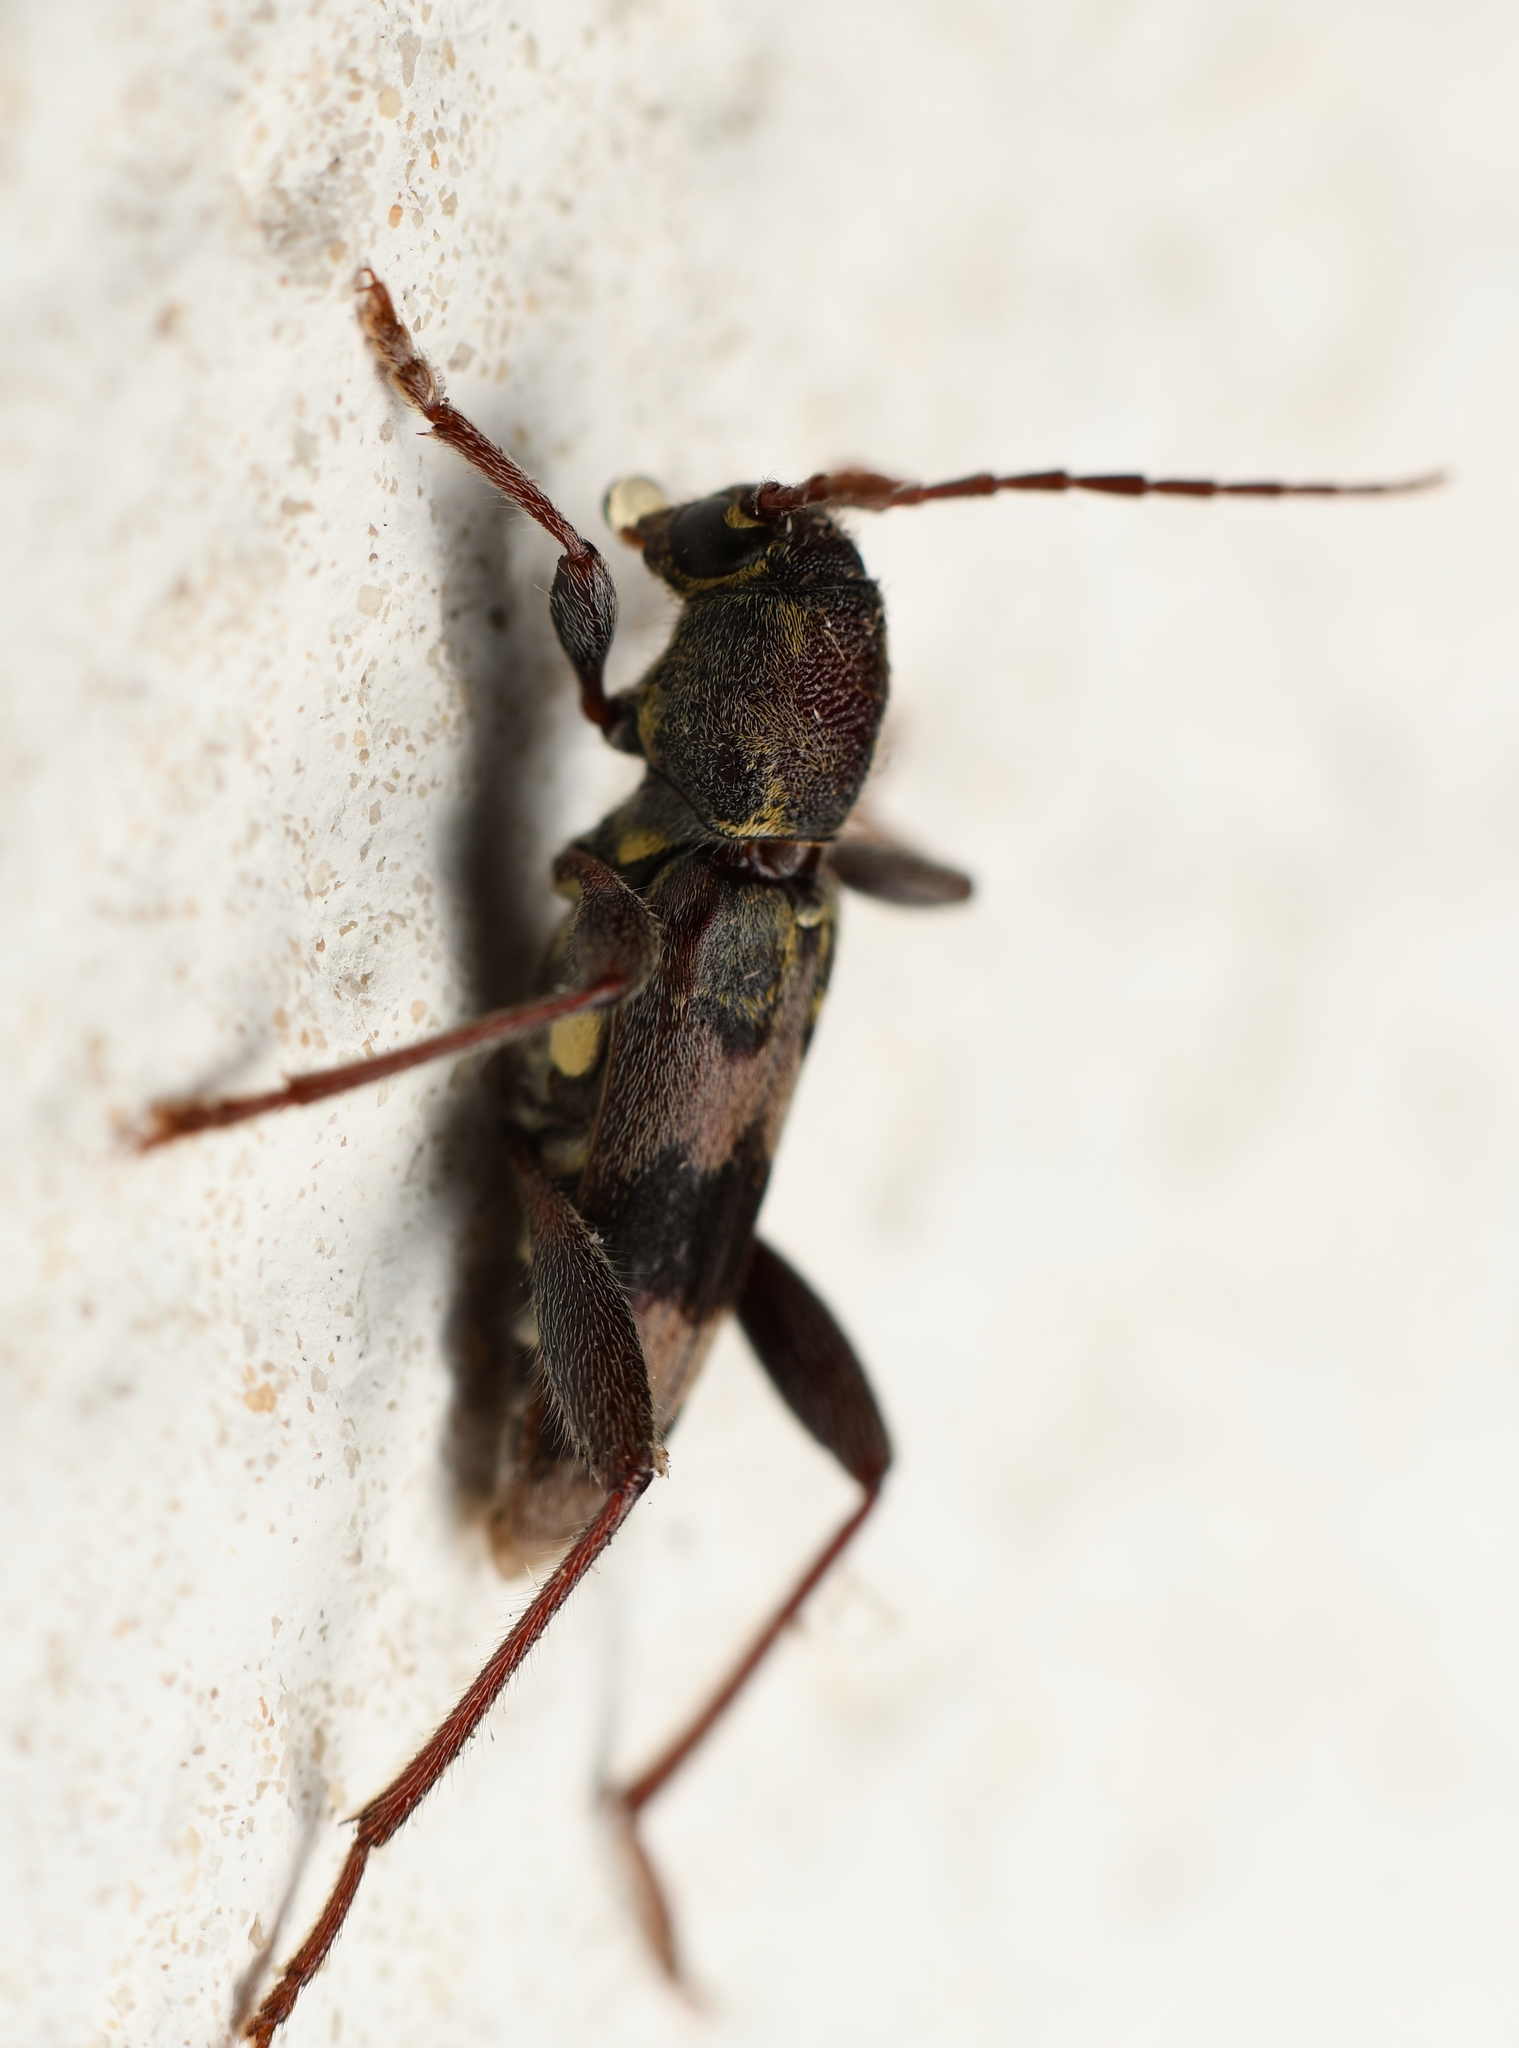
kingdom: Animalia
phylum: Arthropoda
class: Insecta
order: Coleoptera
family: Cerambycidae
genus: Xylotrechus
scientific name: Xylotrechus colonus
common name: Long-horned beetle
